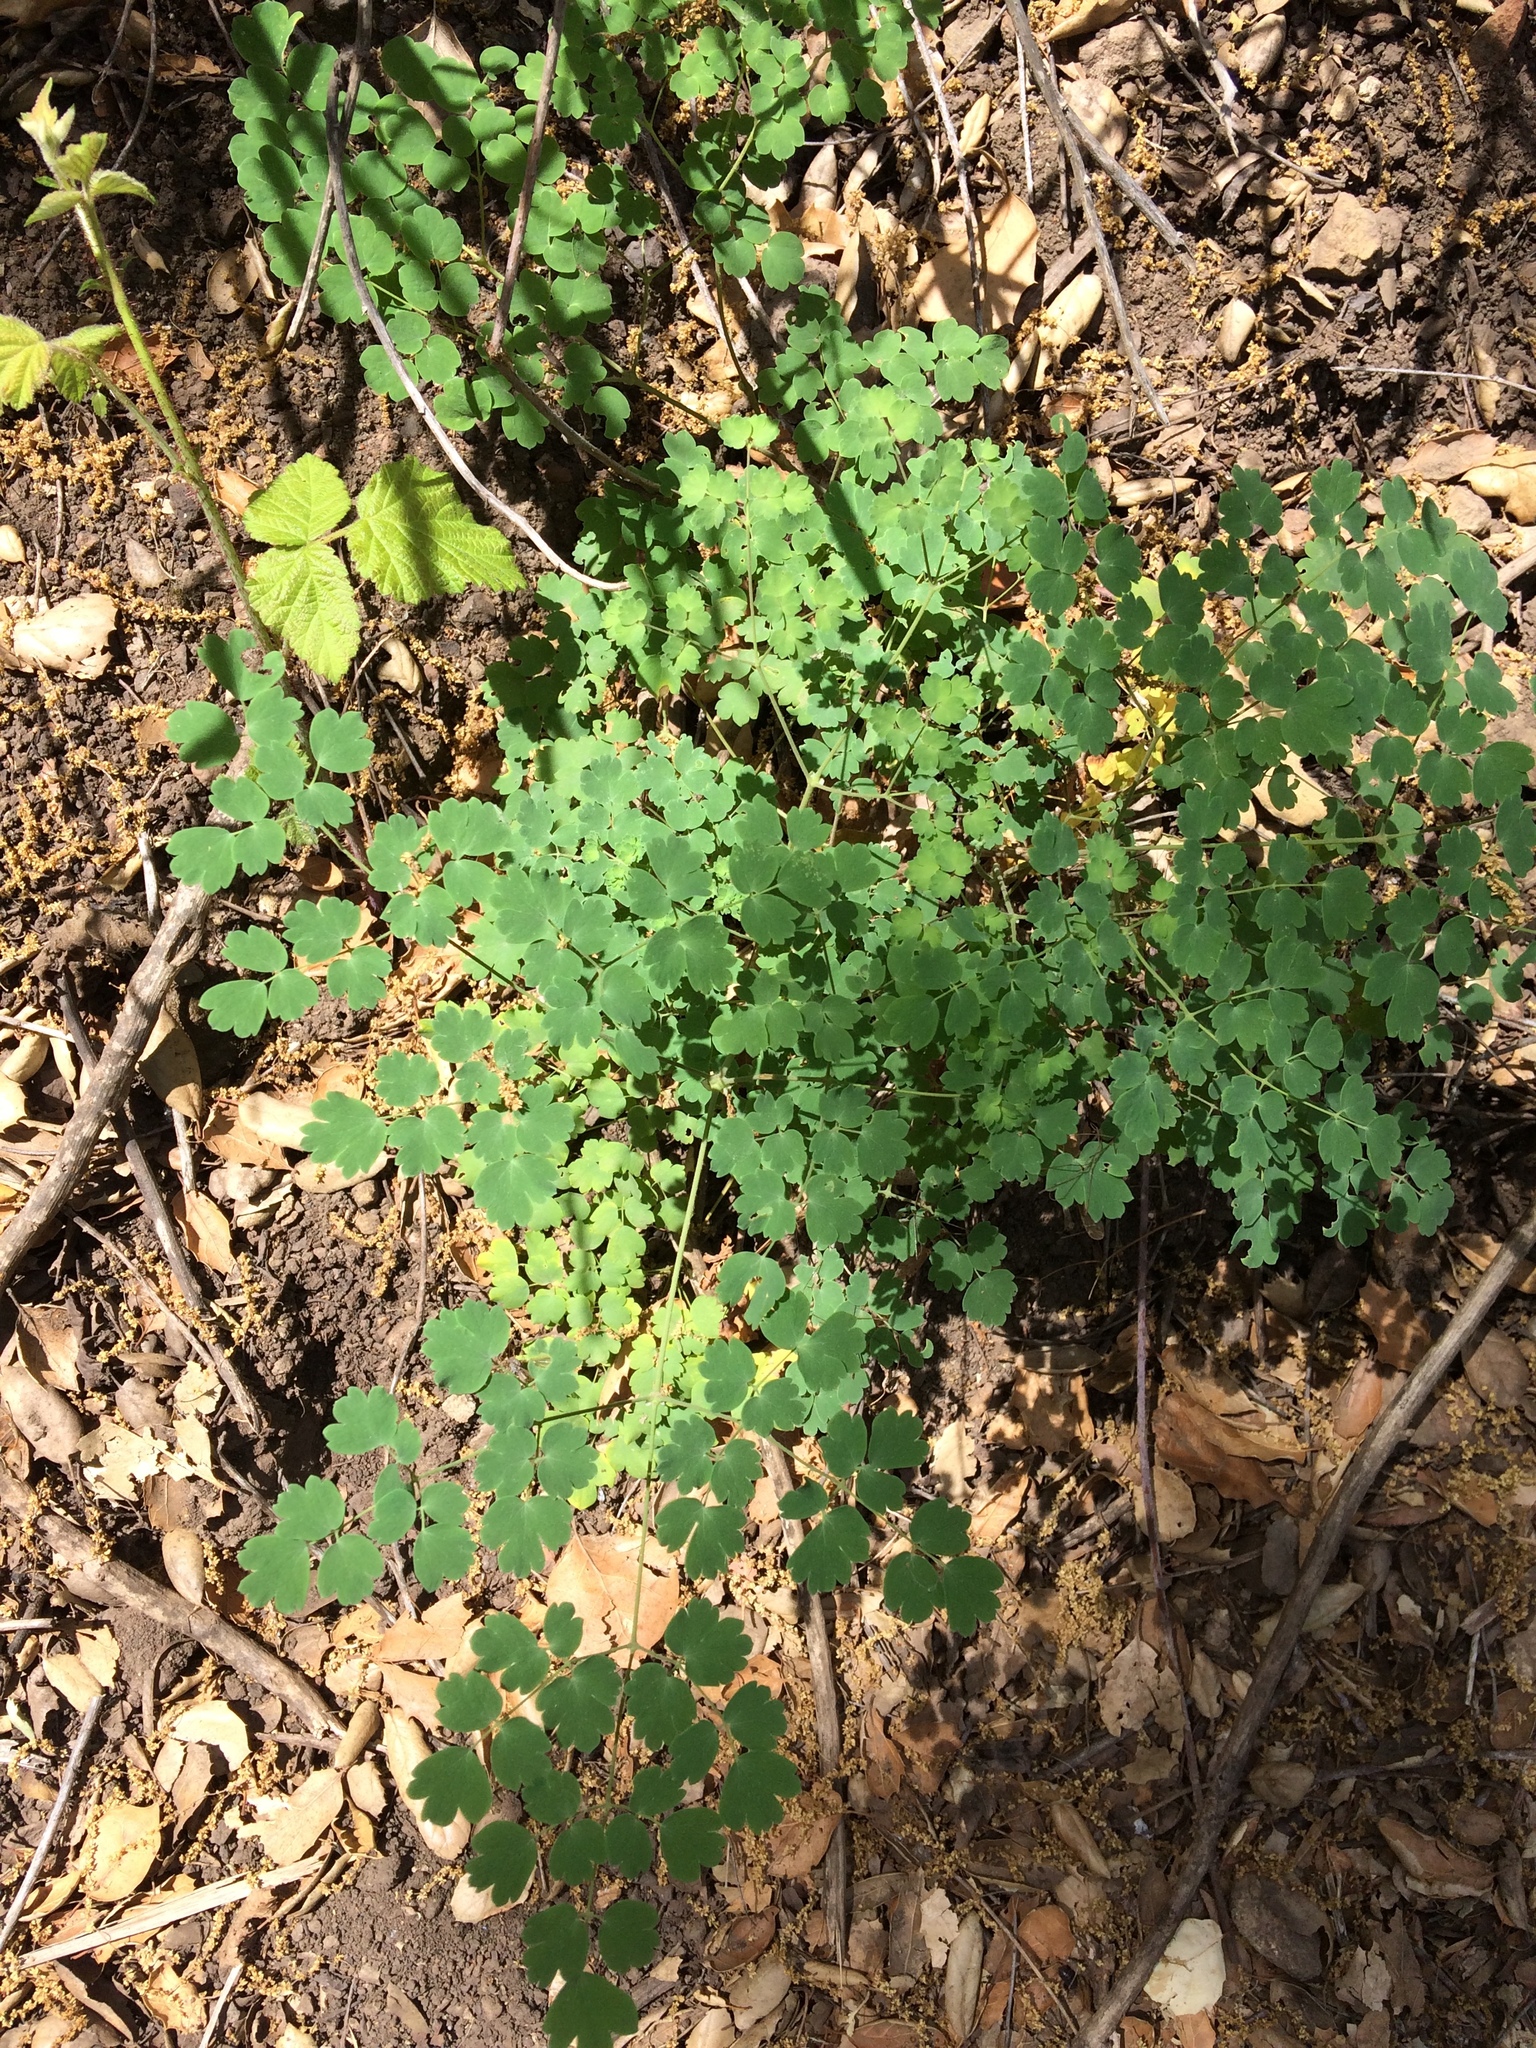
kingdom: Plantae
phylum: Tracheophyta
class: Magnoliopsida
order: Ranunculales
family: Ranunculaceae
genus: Thalictrum
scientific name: Thalictrum fendleri
